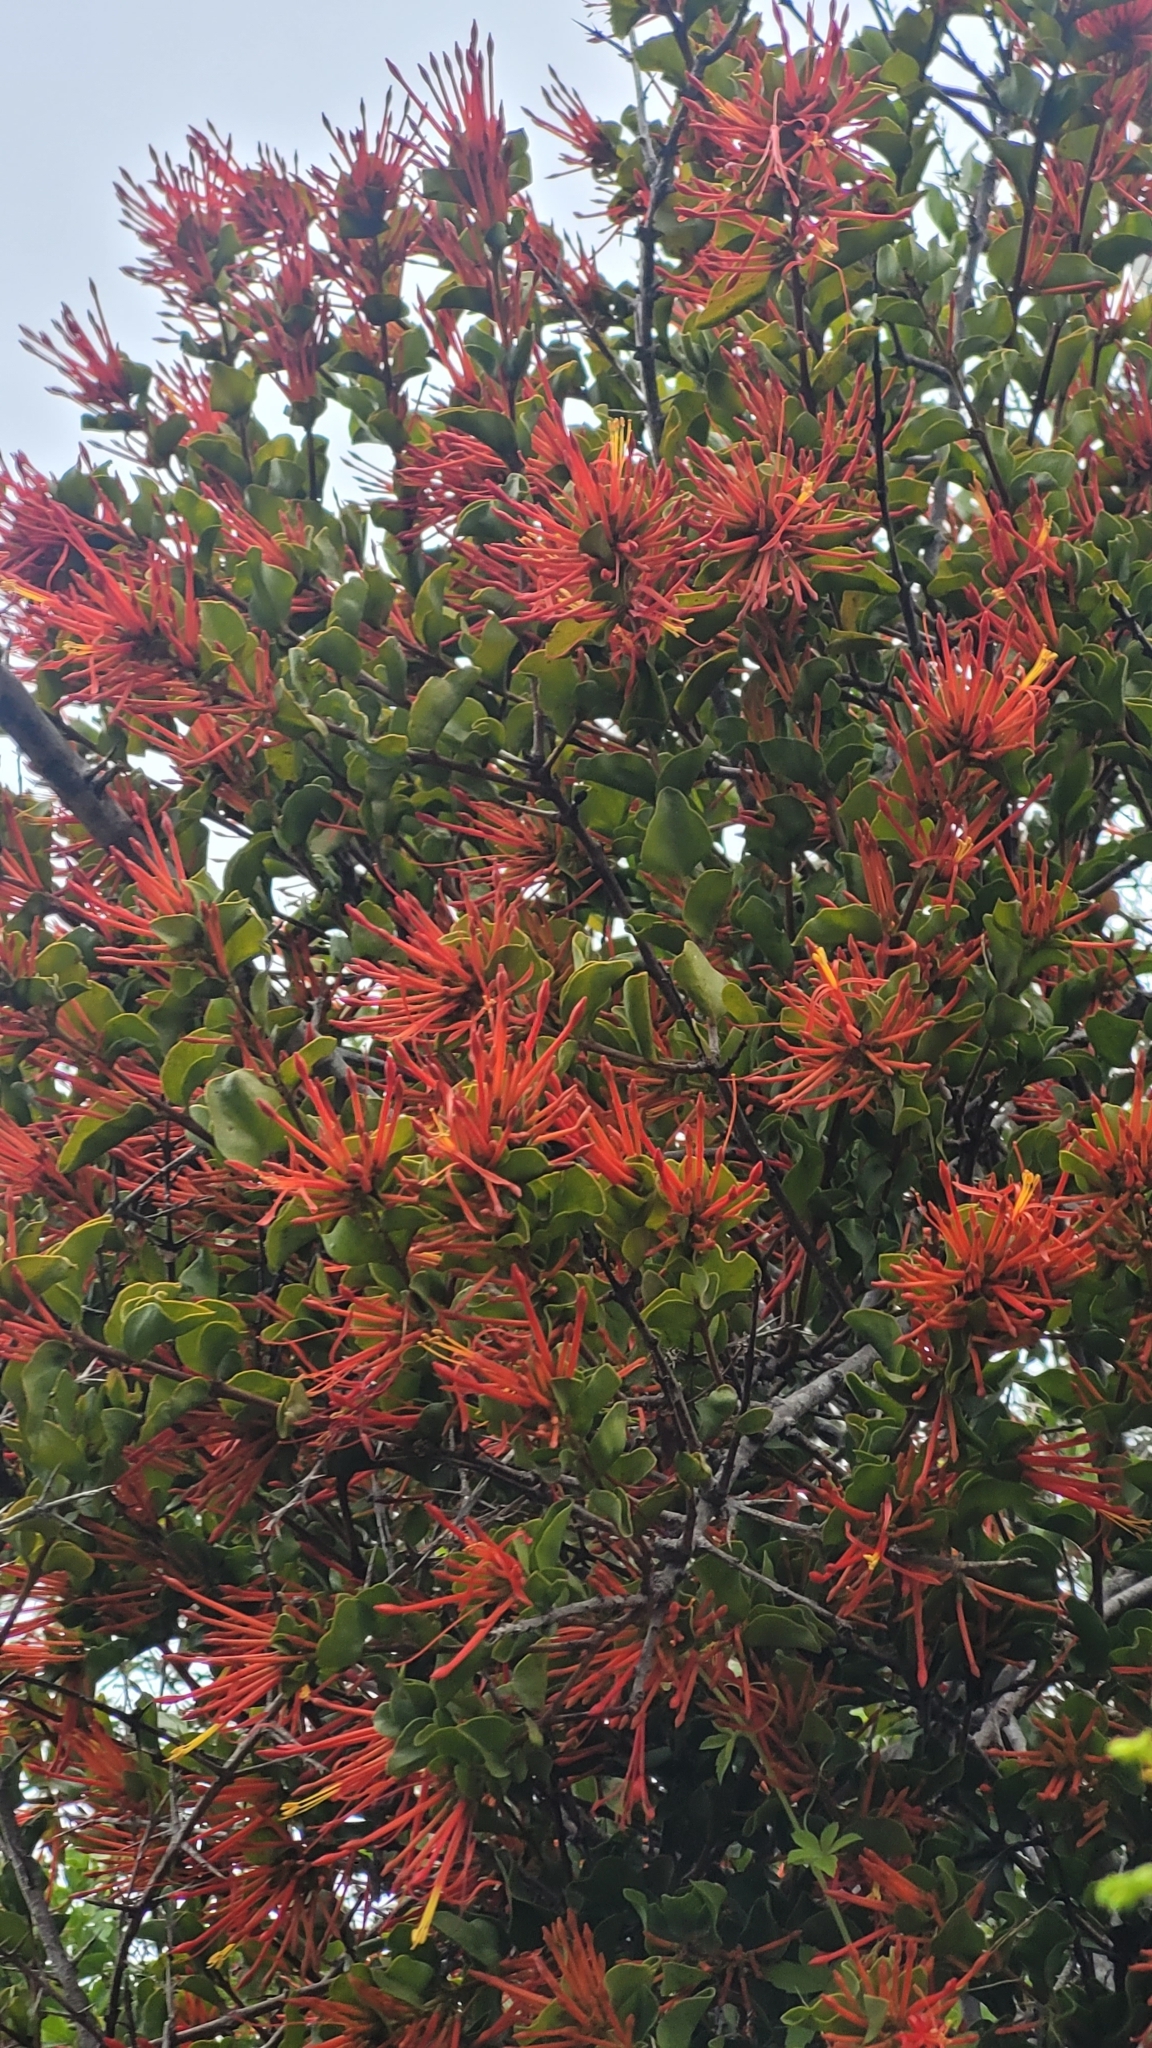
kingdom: Plantae
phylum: Tracheophyta
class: Magnoliopsida
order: Santalales
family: Loranthaceae
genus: Tristerix
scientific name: Tristerix corymbosus
